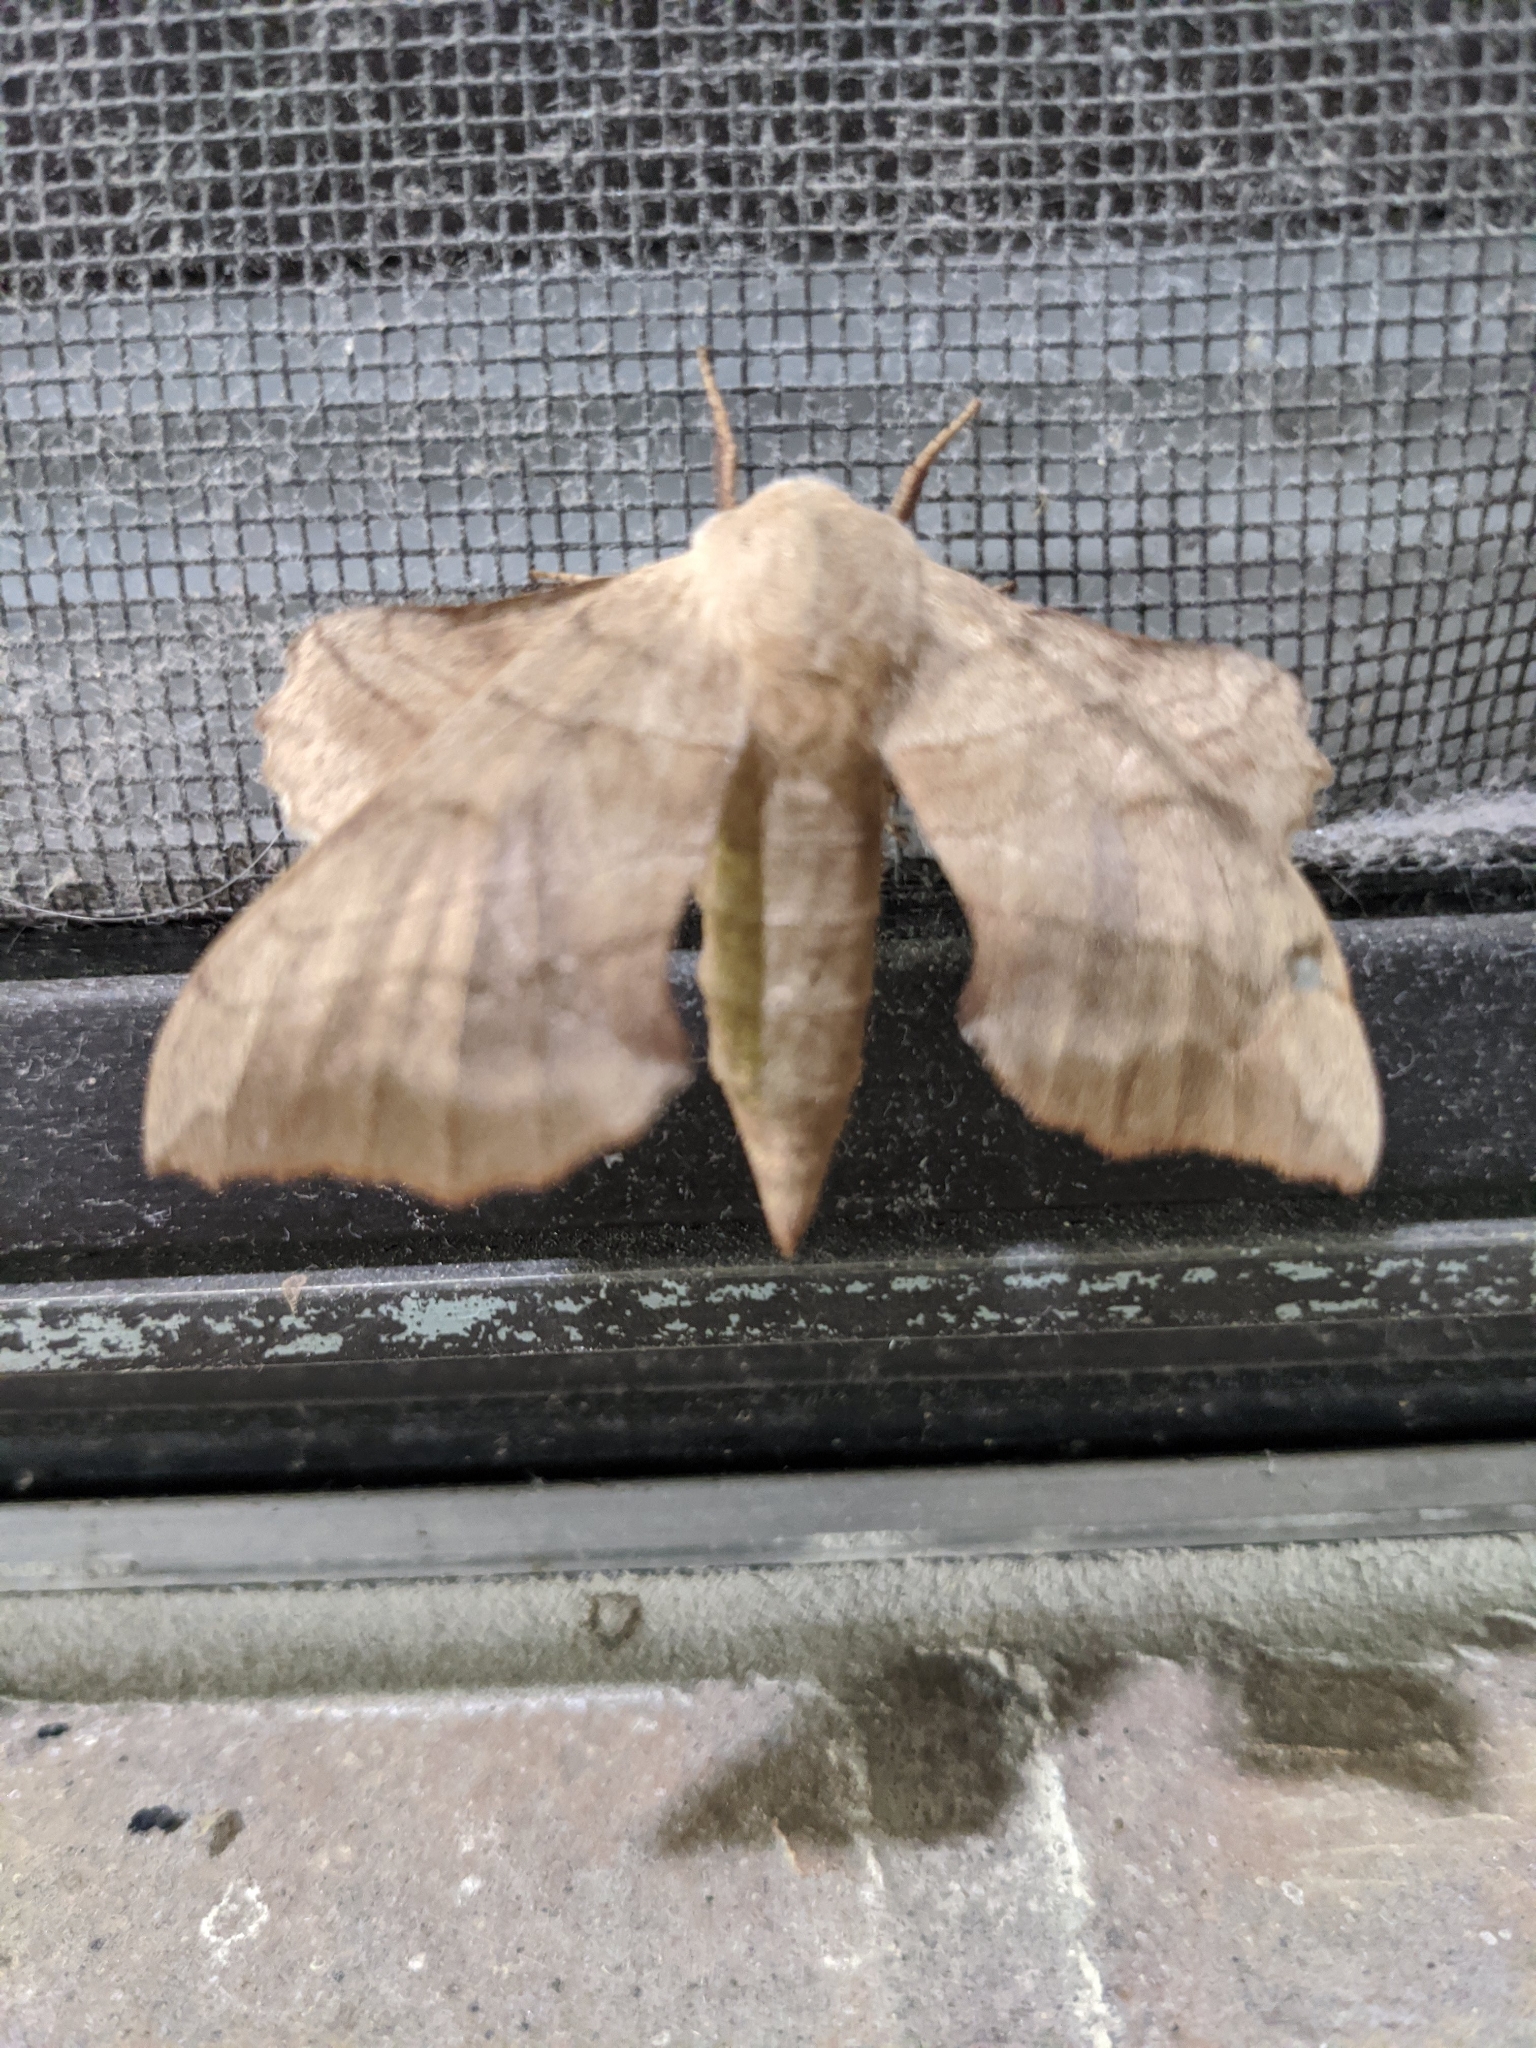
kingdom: Animalia
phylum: Arthropoda
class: Insecta
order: Lepidoptera
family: Sphingidae
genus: Amorpha
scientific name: Amorpha juglandis
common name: Walnut sphinx
